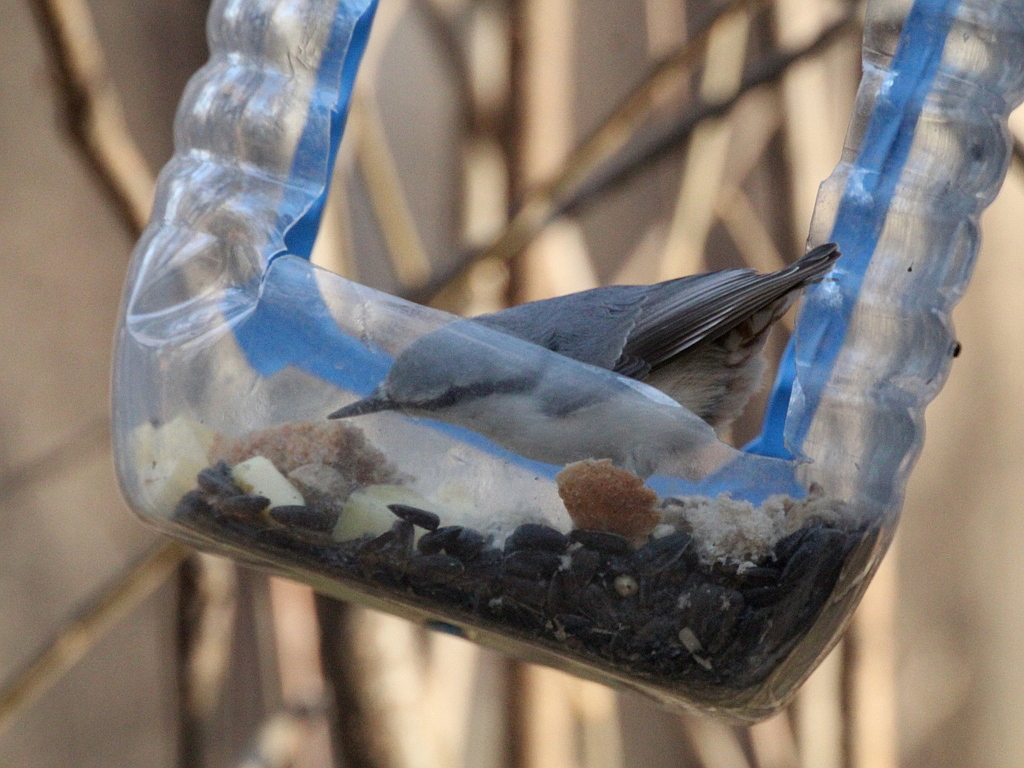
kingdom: Animalia
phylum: Chordata
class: Aves
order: Passeriformes
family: Sittidae
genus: Sitta
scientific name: Sitta europaea
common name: Eurasian nuthatch
